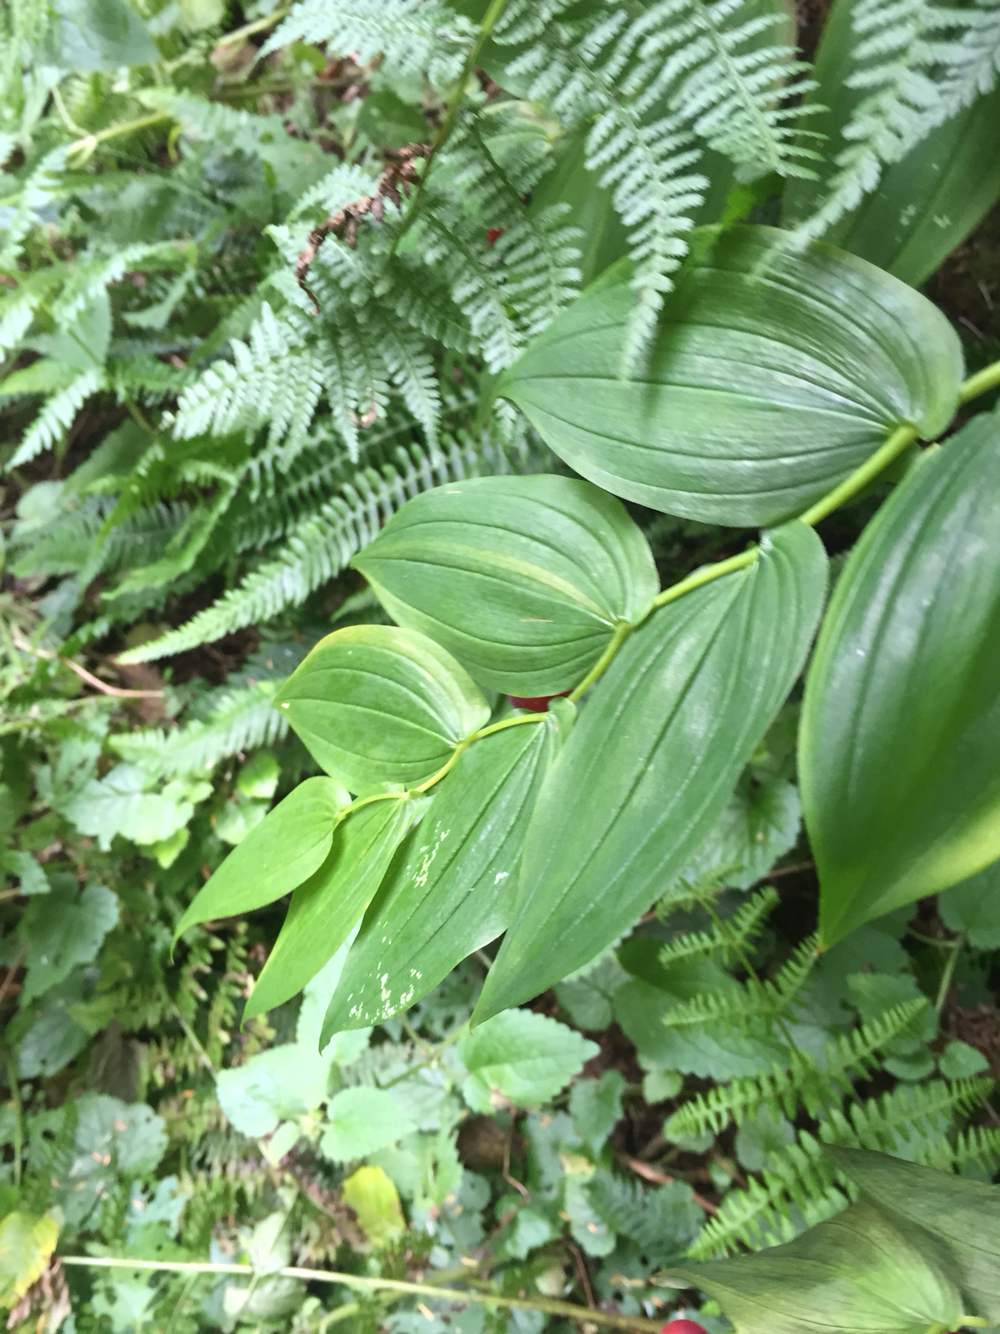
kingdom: Plantae
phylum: Tracheophyta
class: Liliopsida
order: Liliales
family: Liliaceae
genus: Streptopus
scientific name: Streptopus amplexifolius
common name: Clasp twisted stalk
